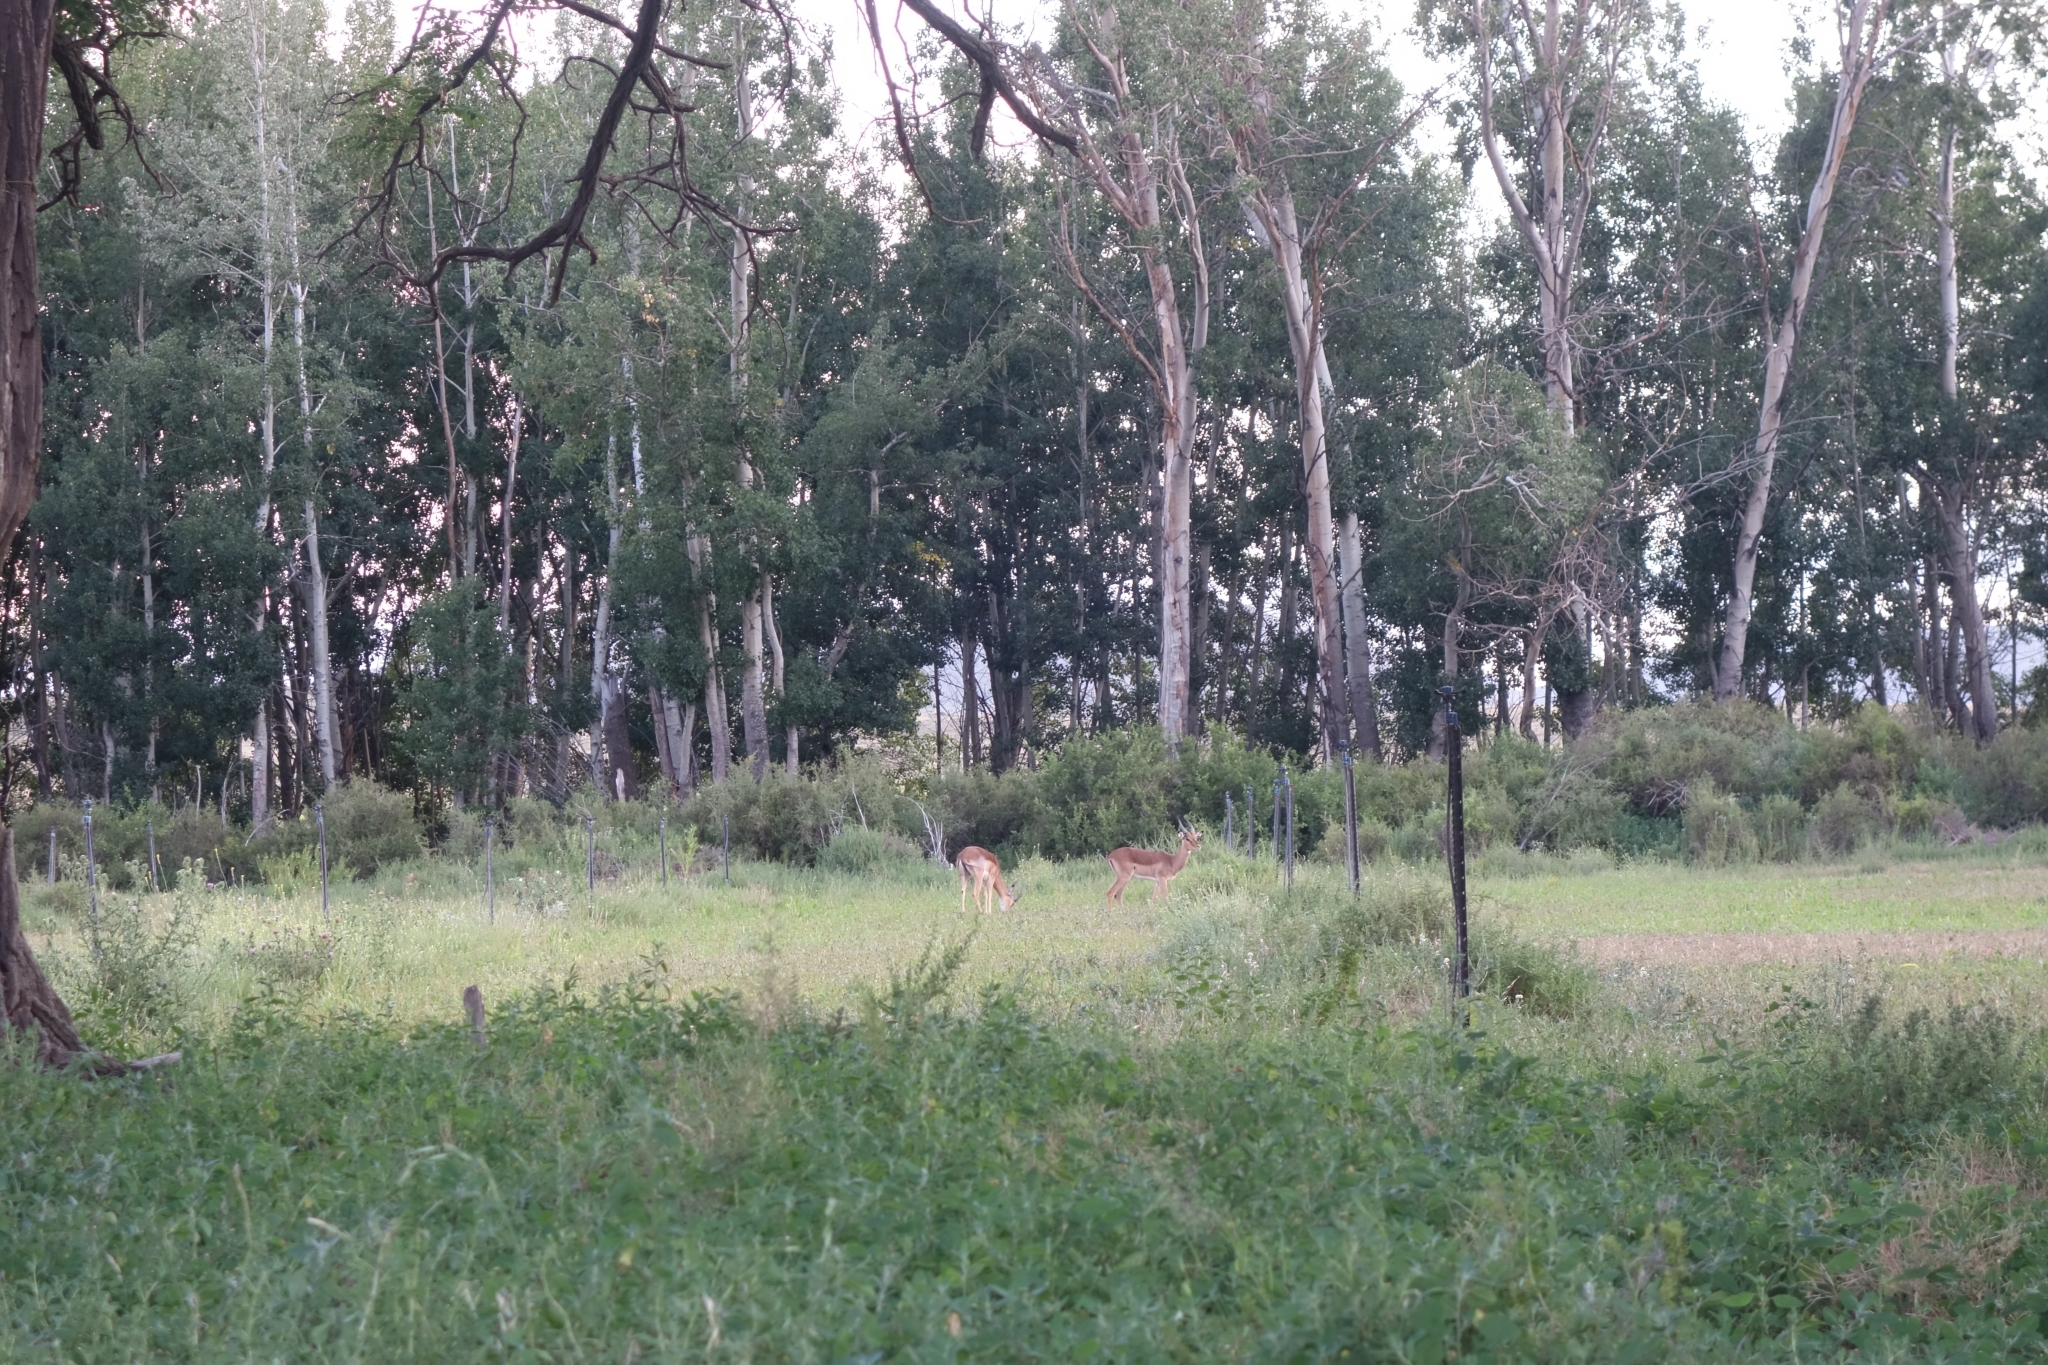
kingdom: Animalia
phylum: Chordata
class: Mammalia
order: Artiodactyla
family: Bovidae
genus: Aepyceros
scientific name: Aepyceros melampus
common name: Impala
